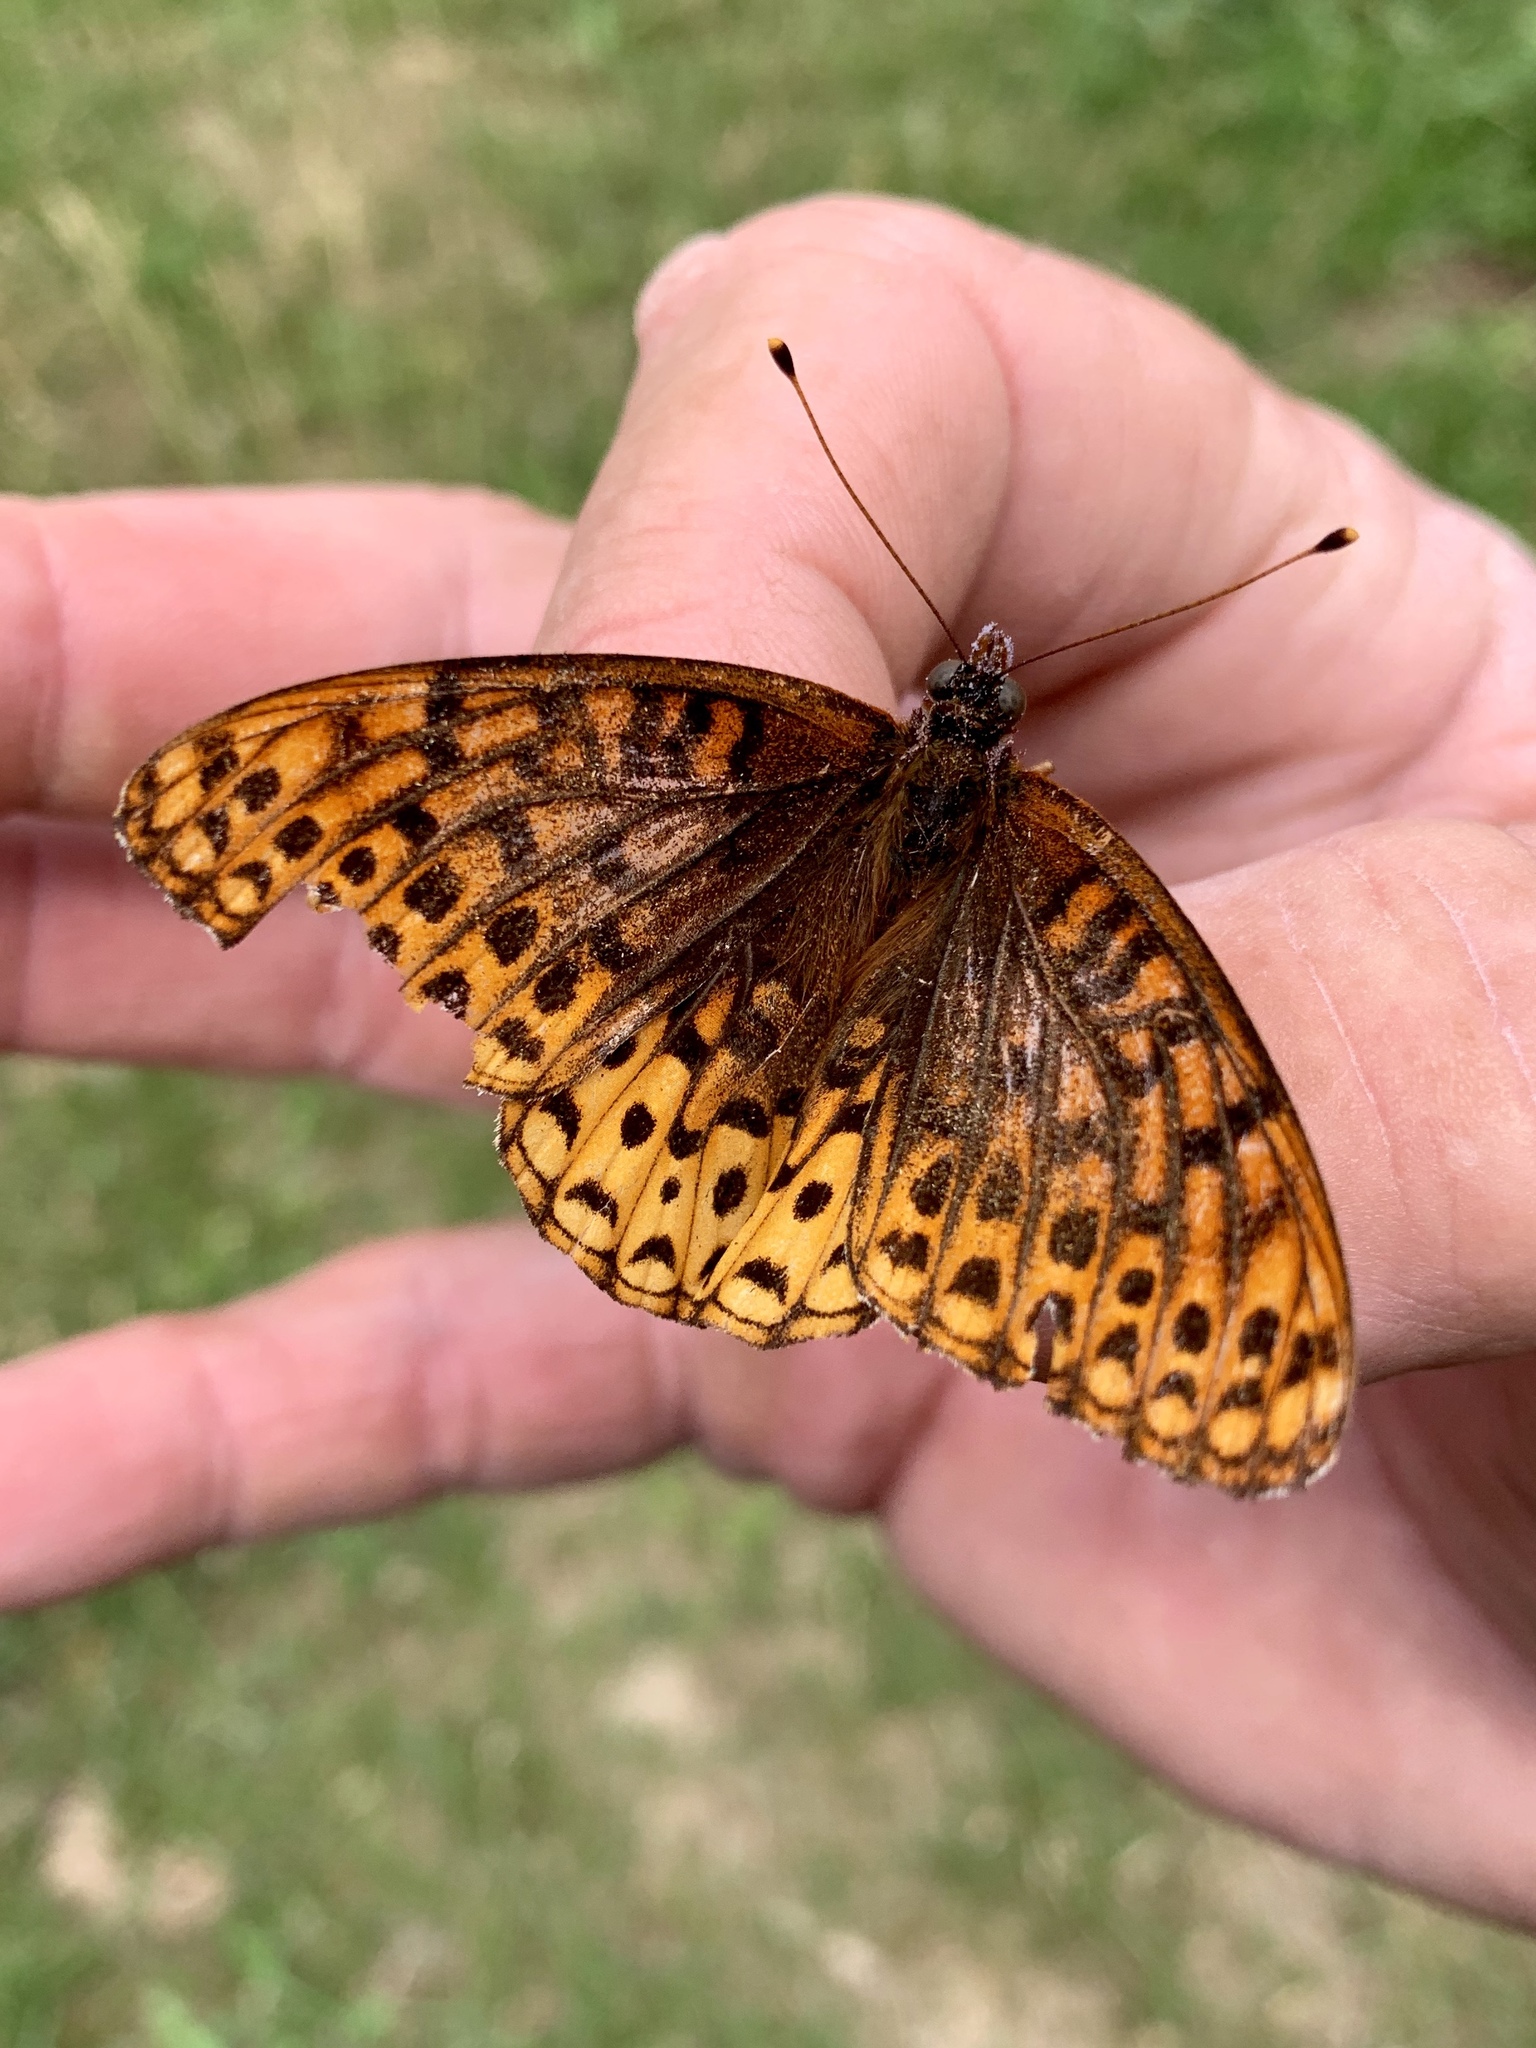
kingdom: Animalia
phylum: Arthropoda
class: Insecta
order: Lepidoptera
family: Nymphalidae
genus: Speyeria
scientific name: Speyeria atlantis
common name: Atlantis fritillary
